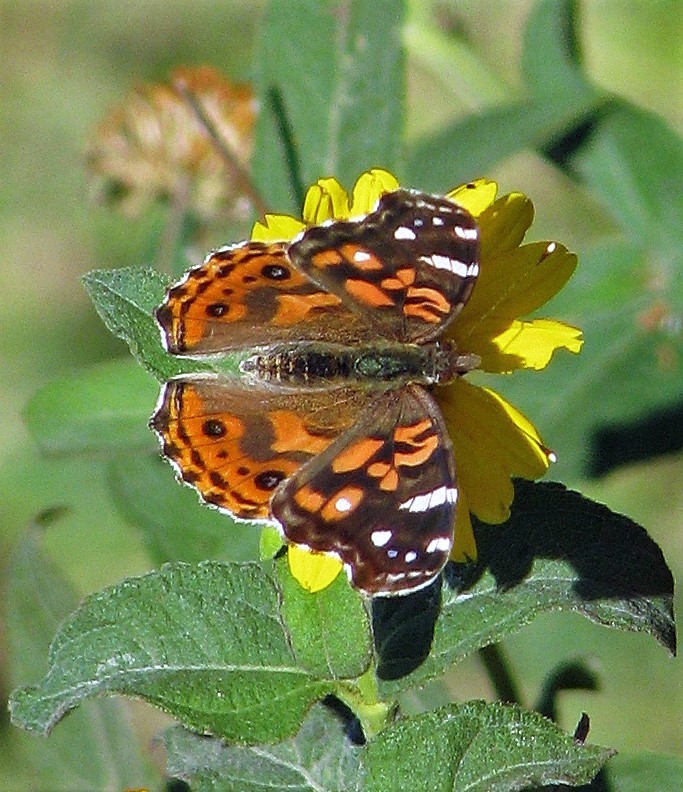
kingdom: Animalia
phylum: Arthropoda
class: Insecta
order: Lepidoptera
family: Nymphalidae
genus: Vanessa
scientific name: Vanessa braziliensis
